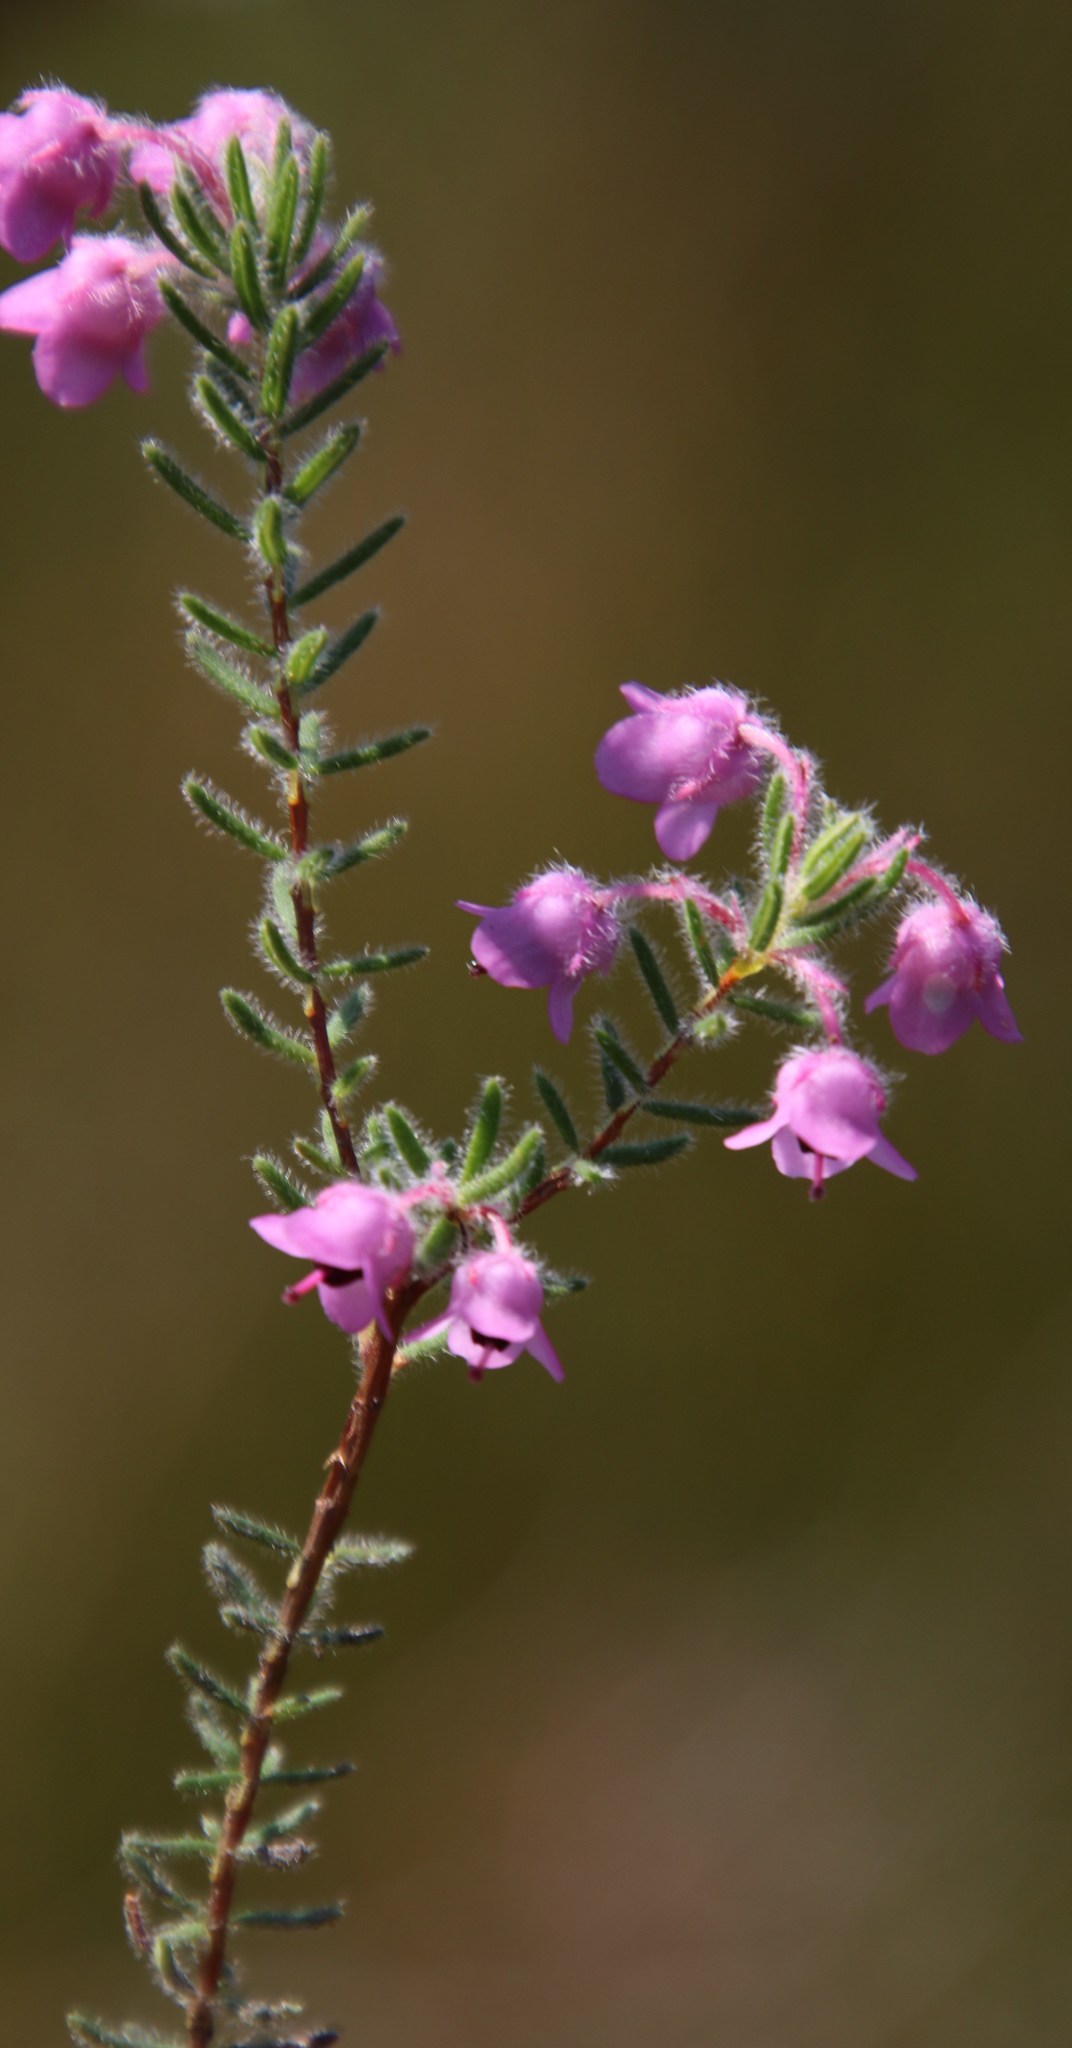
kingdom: Plantae
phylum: Tracheophyta
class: Magnoliopsida
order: Ericales
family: Ericaceae
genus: Erica
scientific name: Erica amoena
